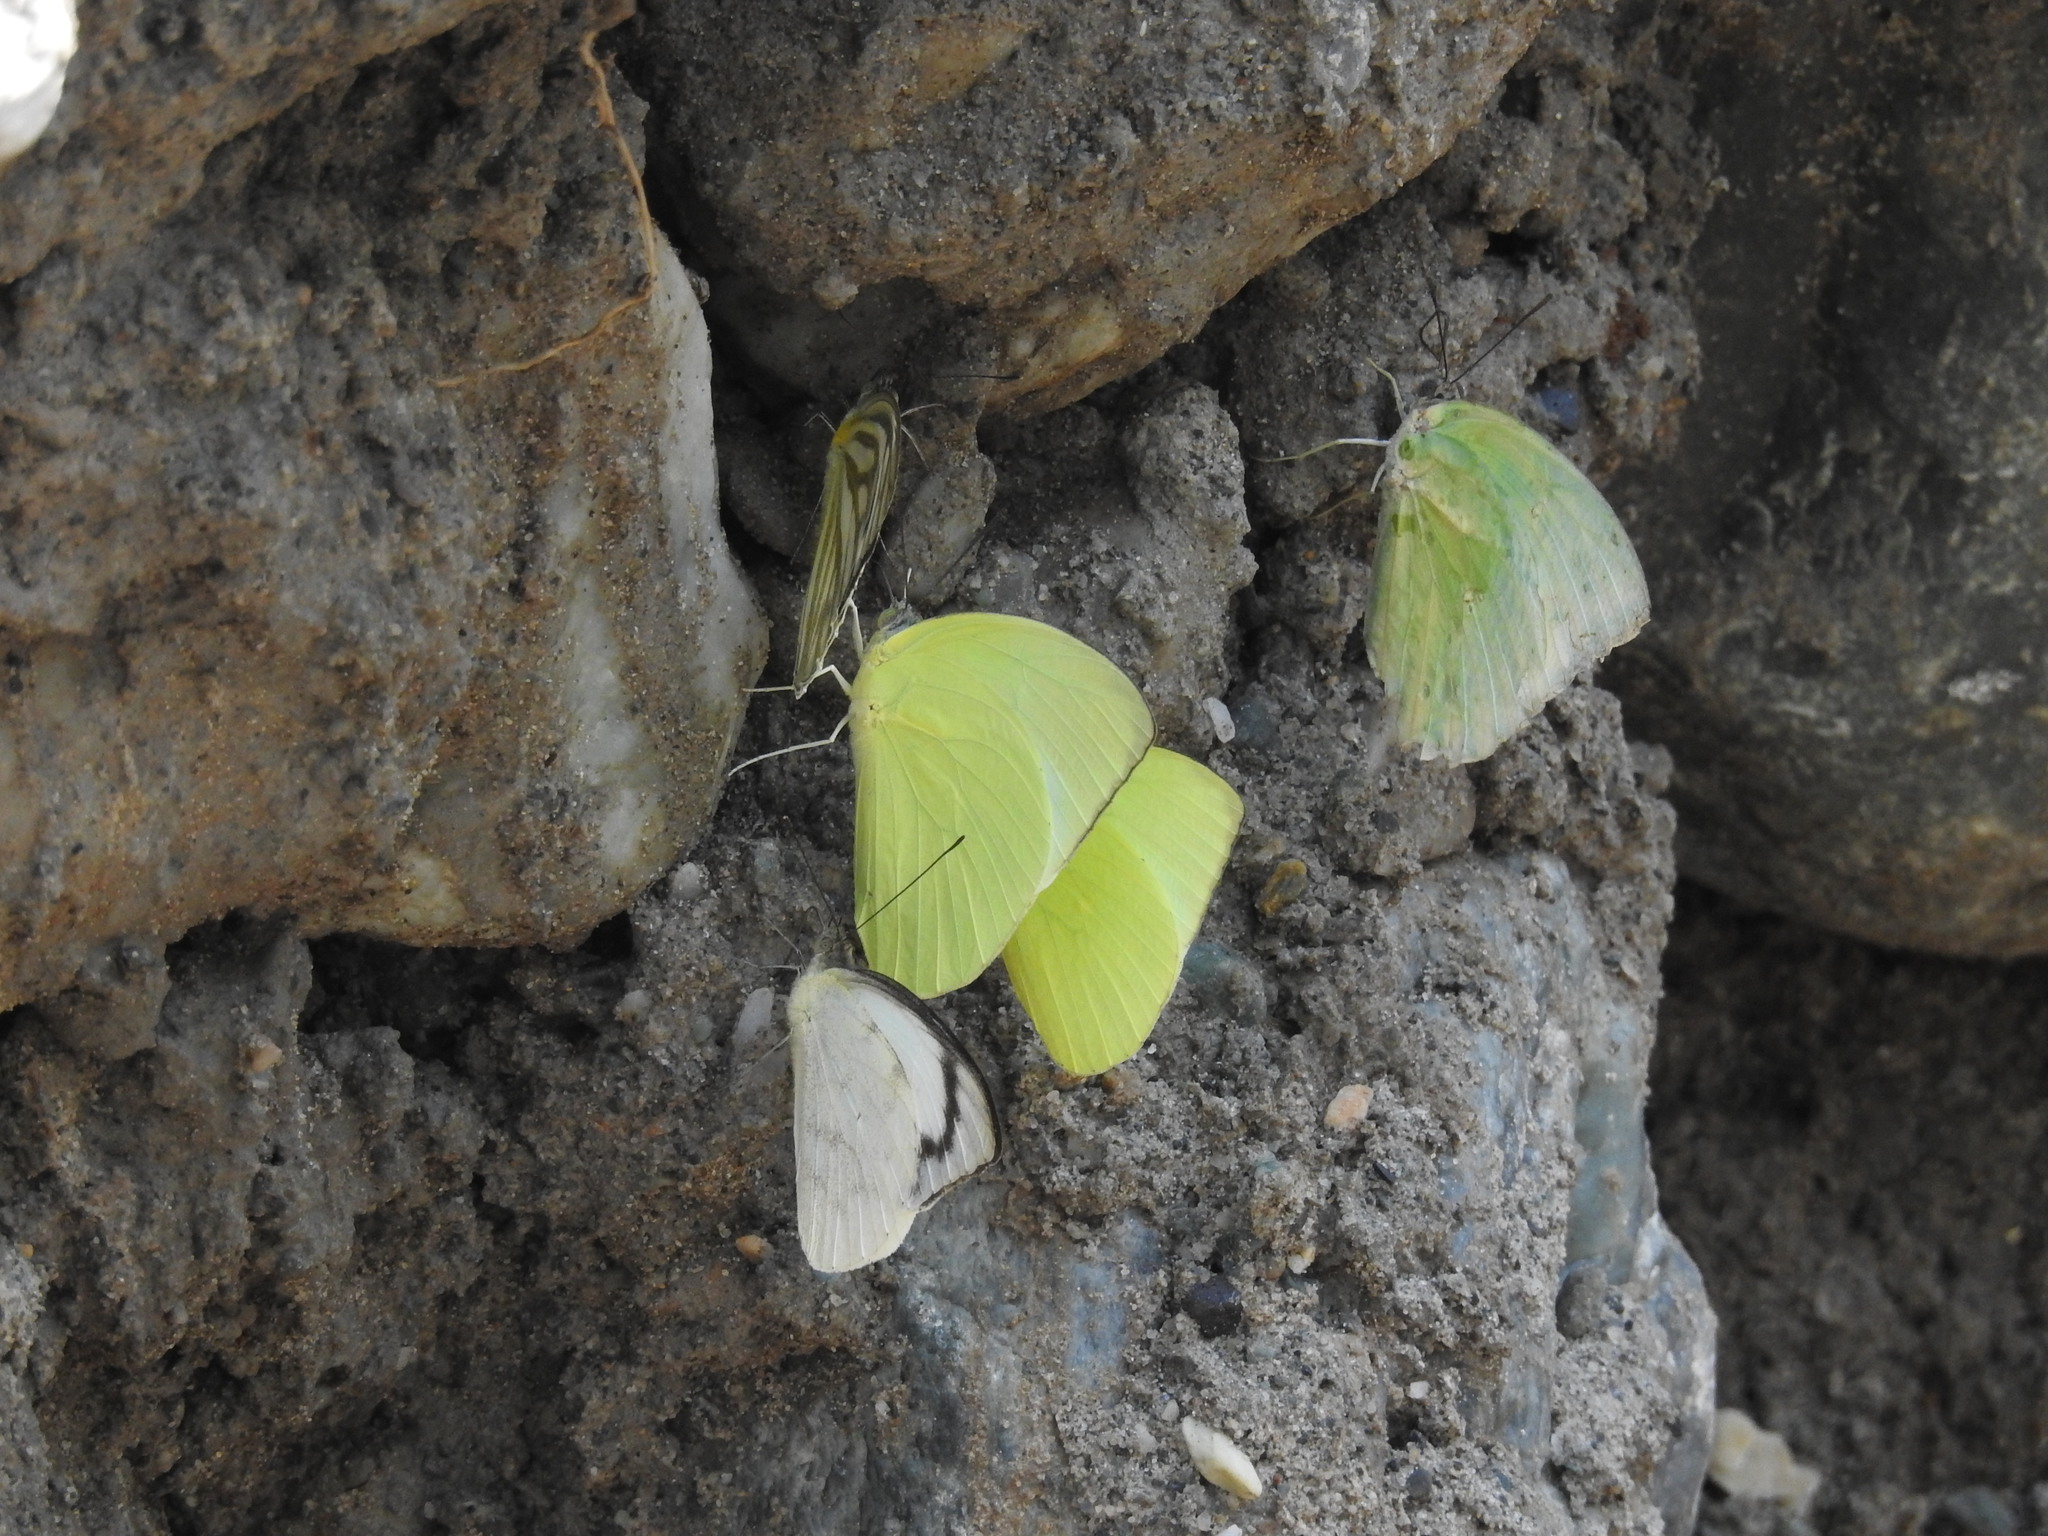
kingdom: Animalia
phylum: Arthropoda
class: Insecta
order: Lepidoptera
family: Pieridae
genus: Catopsilia
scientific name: Catopsilia pomona
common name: Common emigrant
